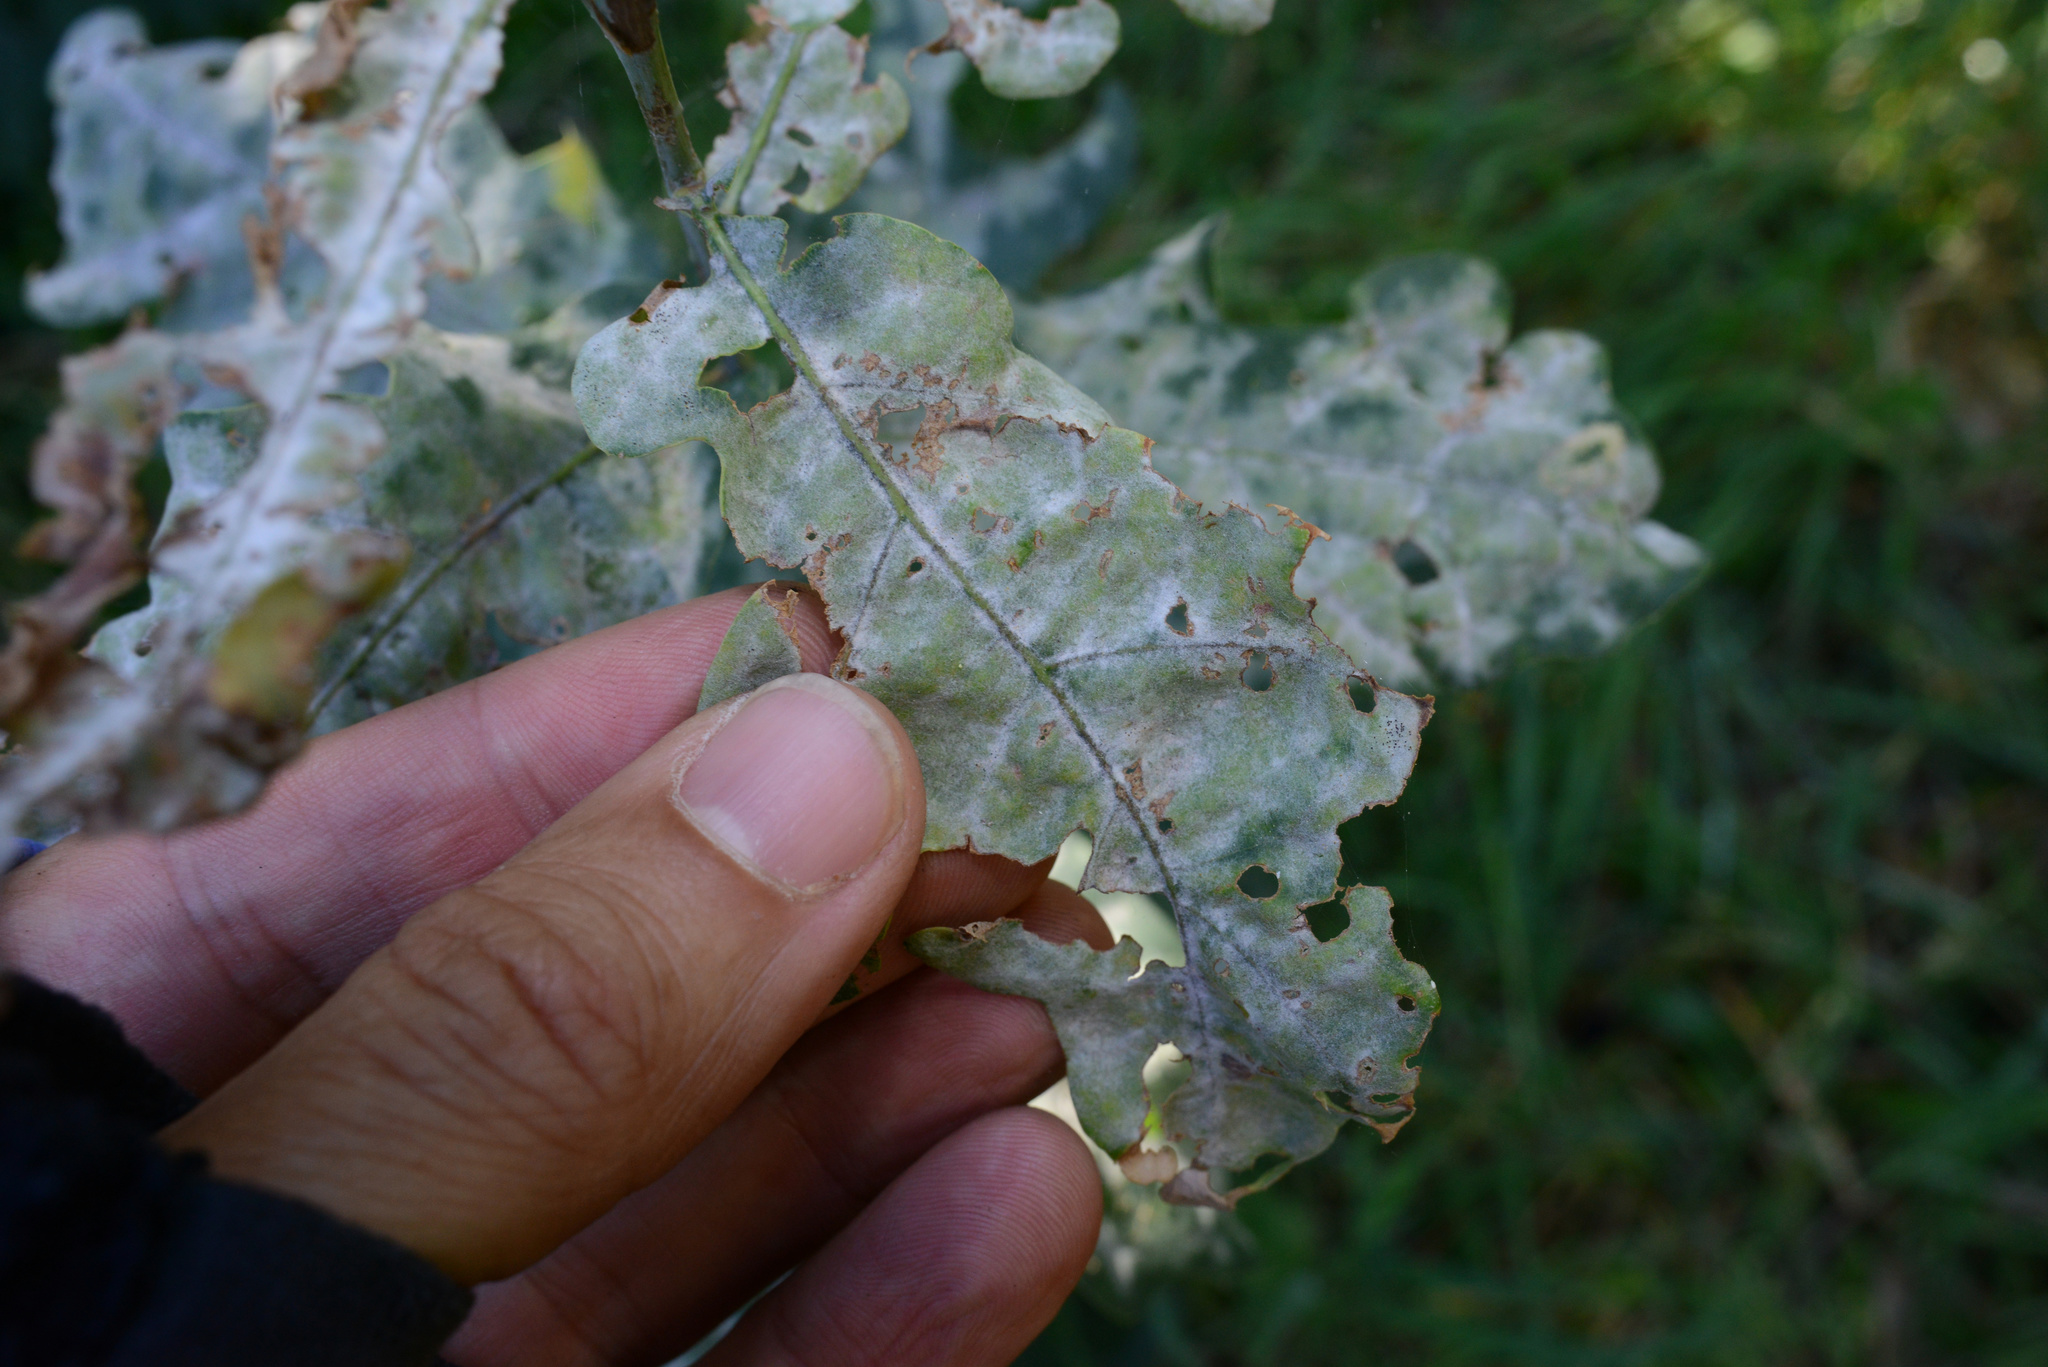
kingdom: Fungi
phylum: Ascomycota
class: Leotiomycetes
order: Helotiales
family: Erysiphaceae
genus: Erysiphe
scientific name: Erysiphe alphitoides
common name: Oak mildew
